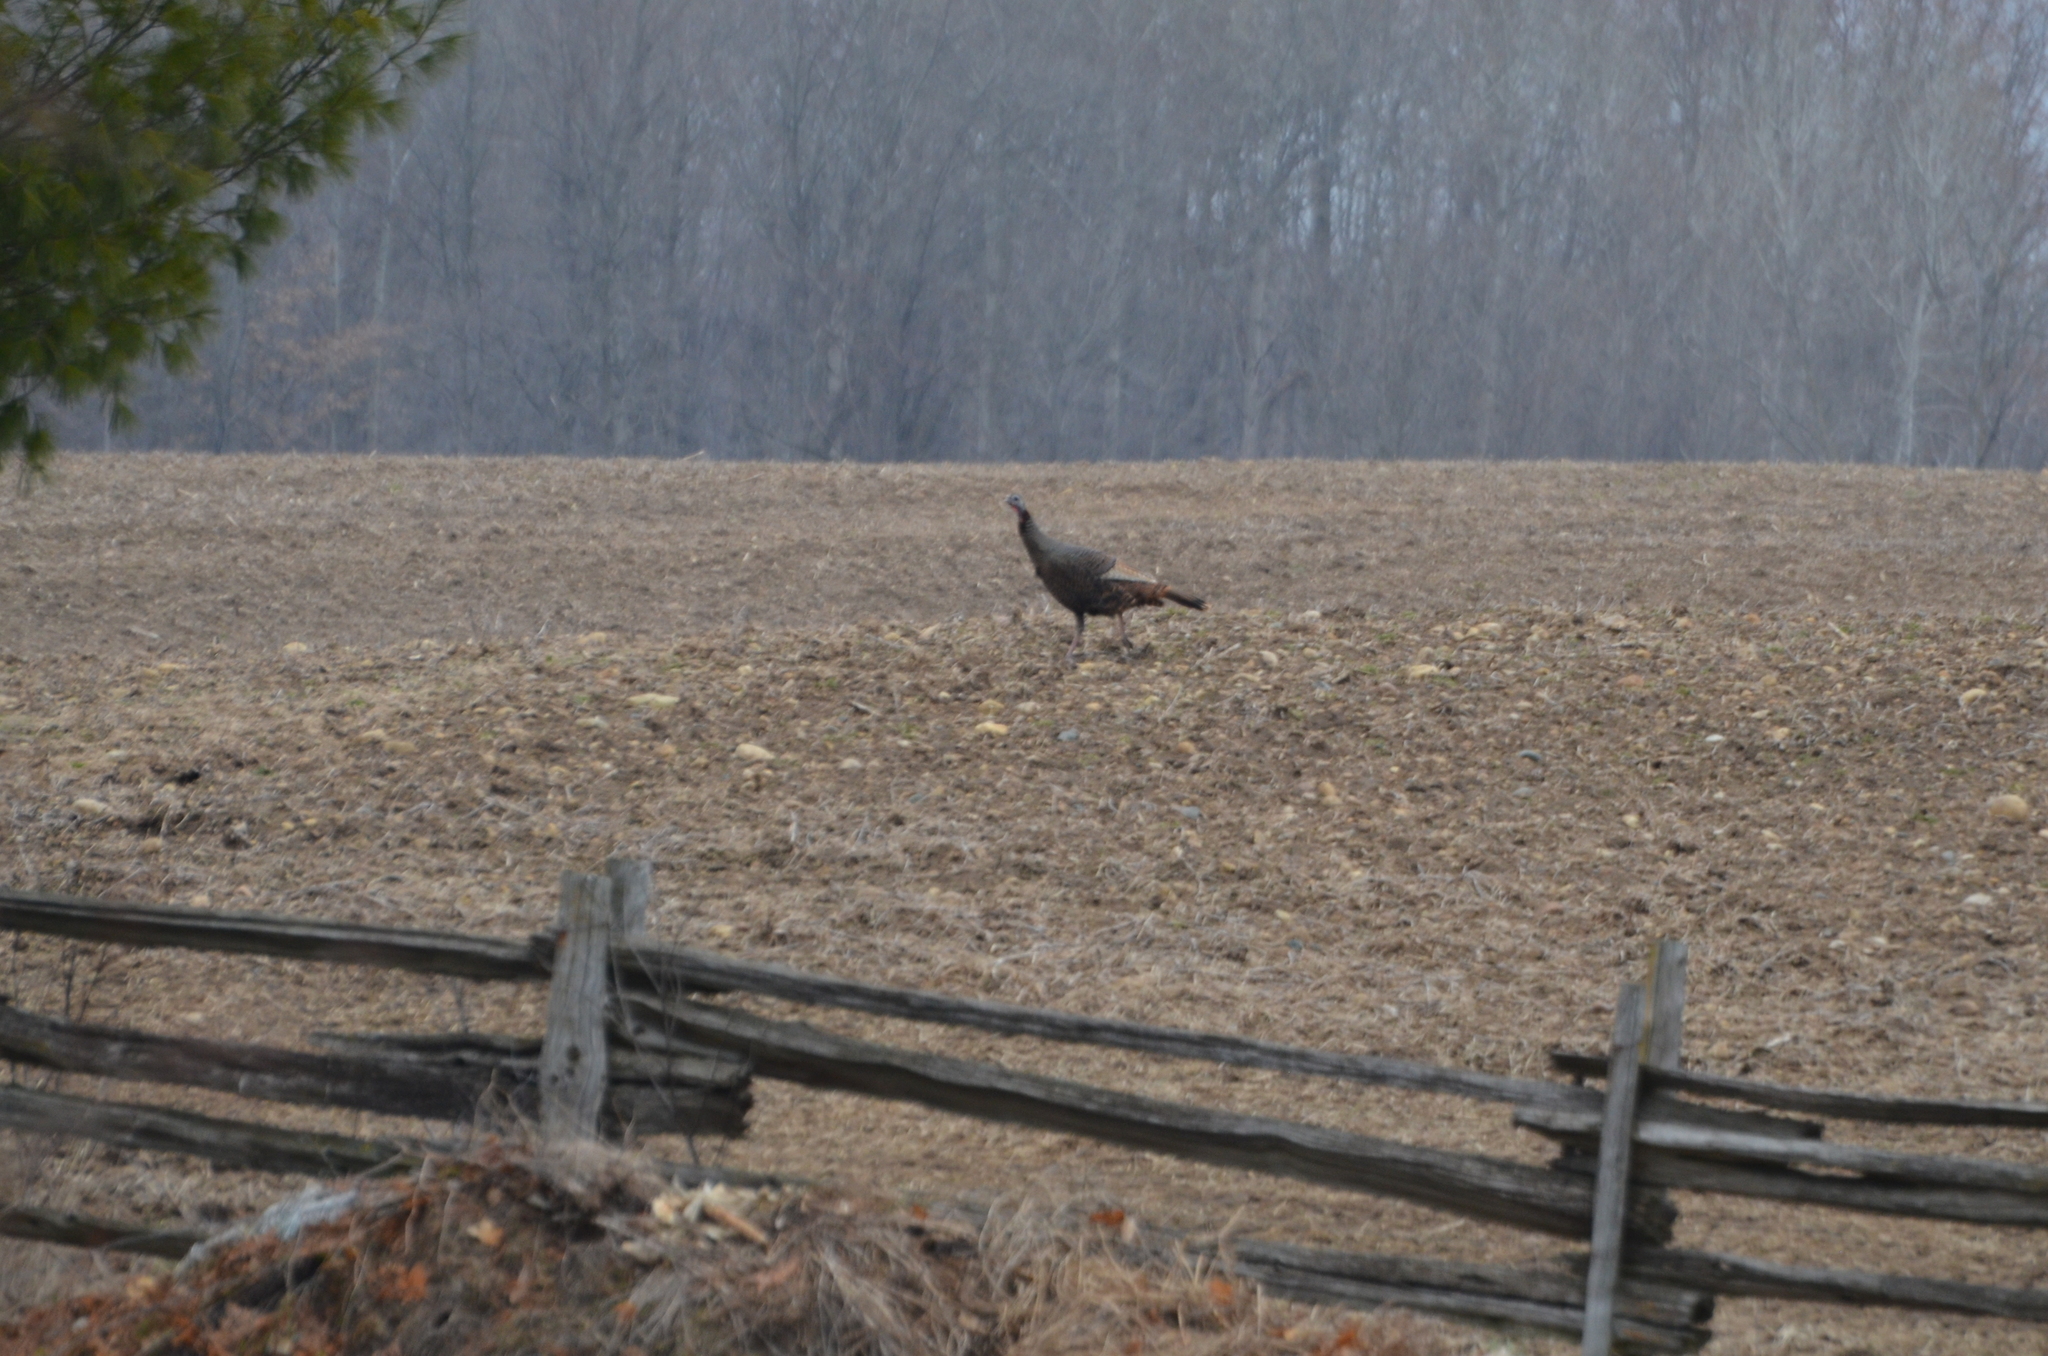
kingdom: Animalia
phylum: Chordata
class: Aves
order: Galliformes
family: Phasianidae
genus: Meleagris
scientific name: Meleagris gallopavo
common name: Wild turkey
